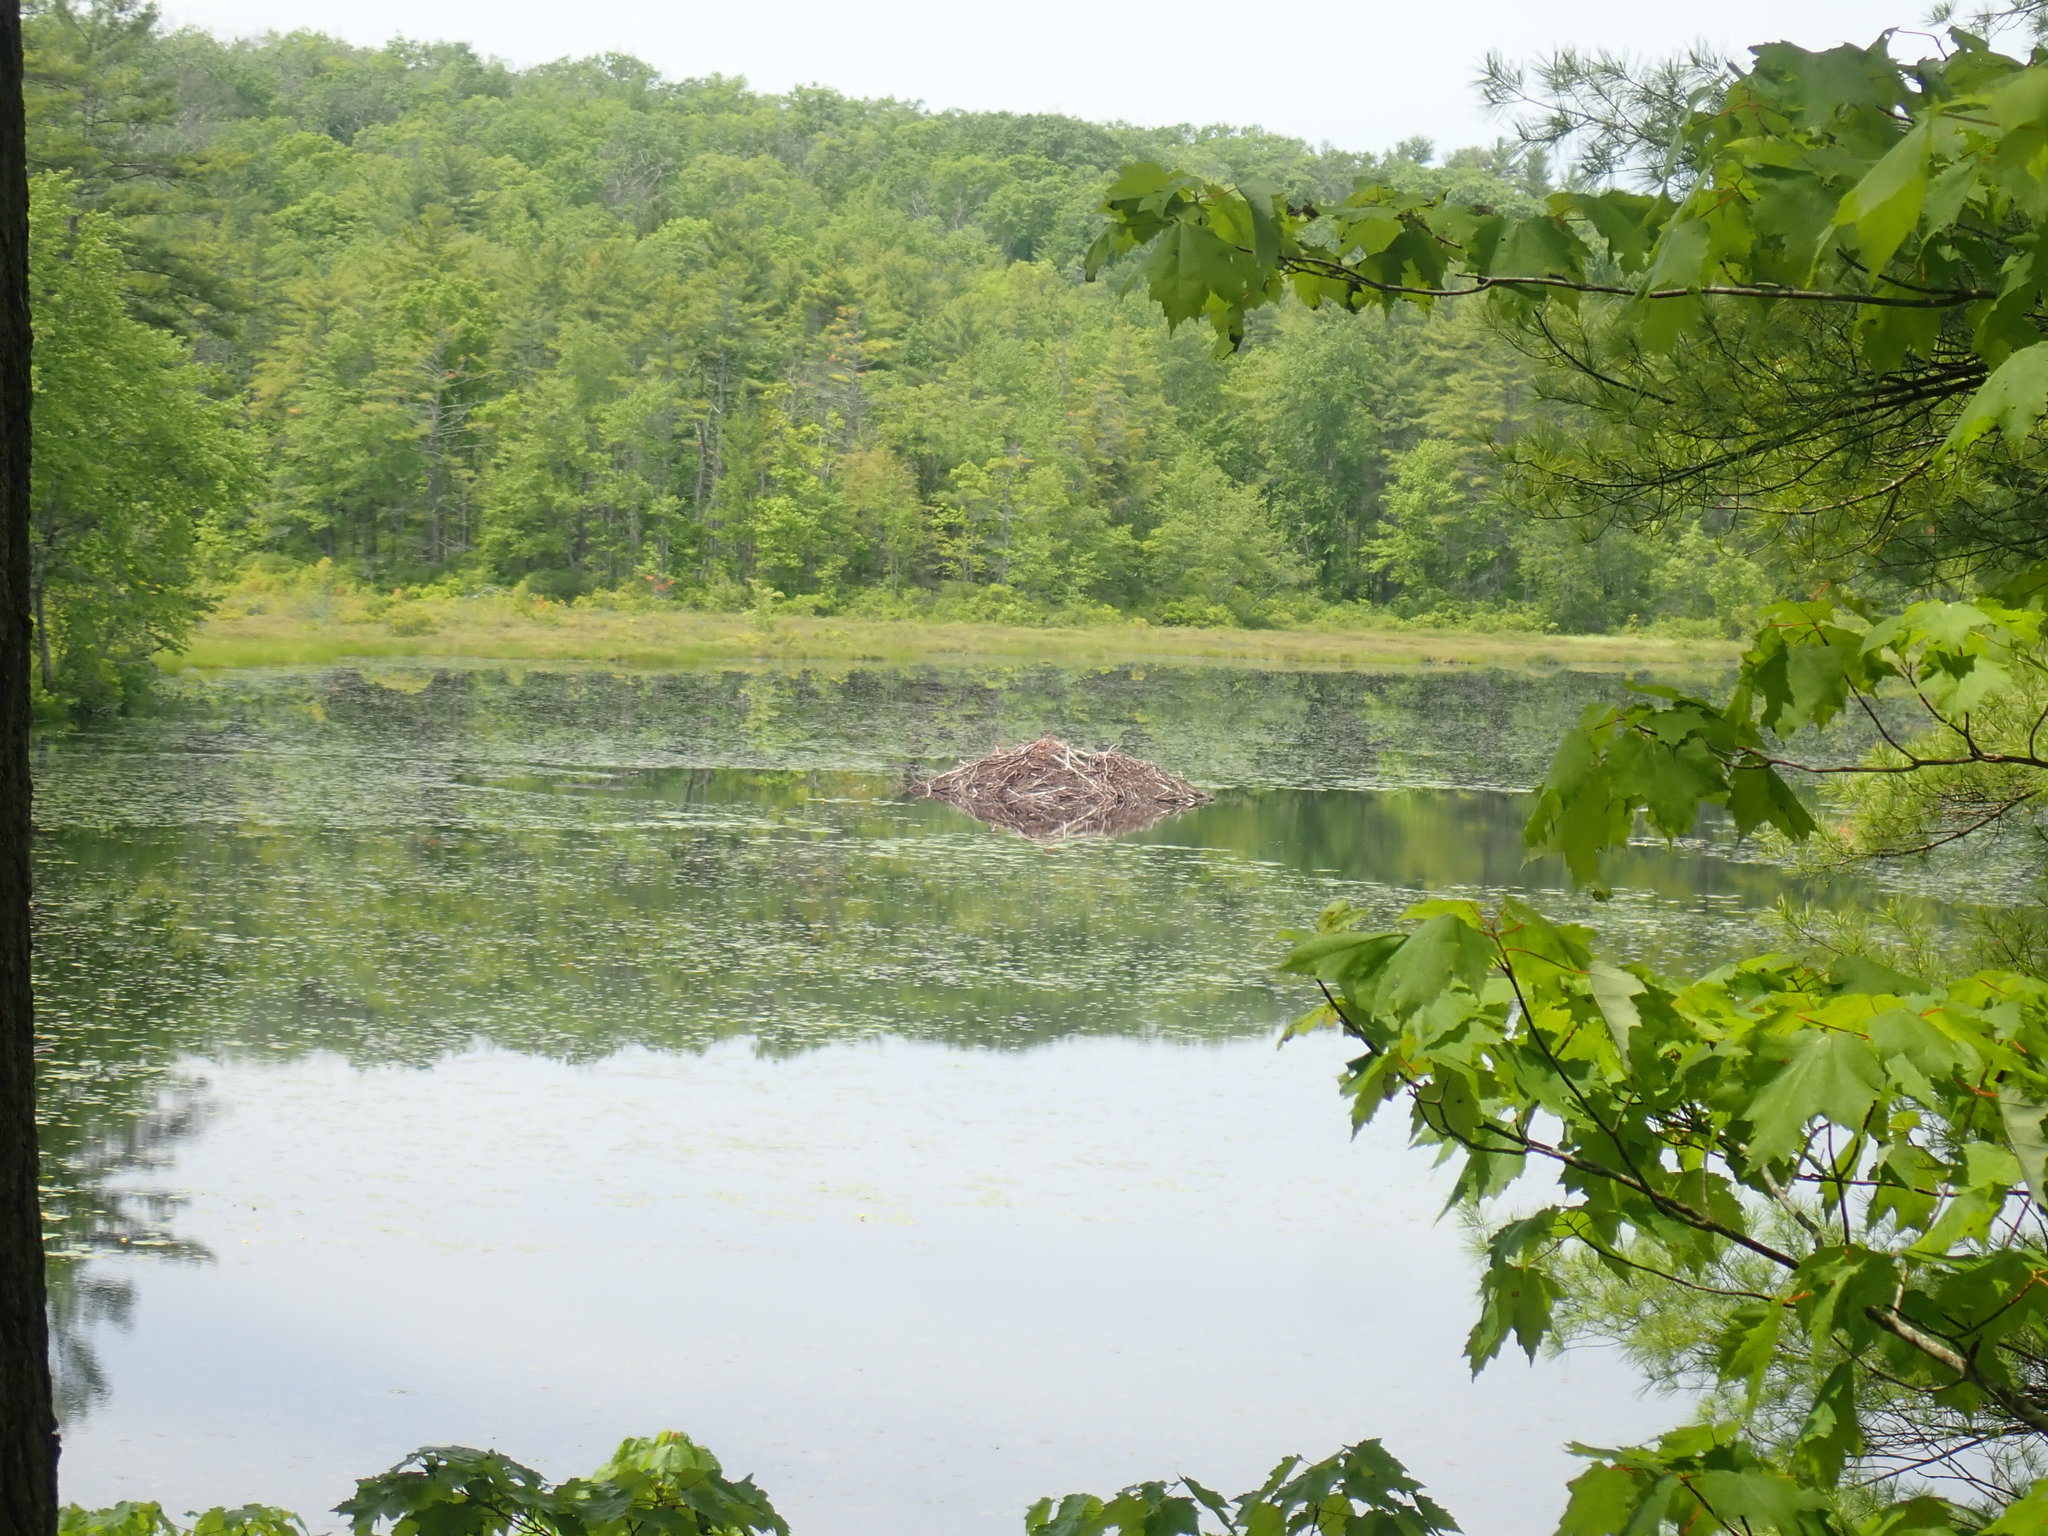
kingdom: Animalia
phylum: Chordata
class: Mammalia
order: Rodentia
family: Castoridae
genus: Castor
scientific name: Castor canadensis
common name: American beaver
